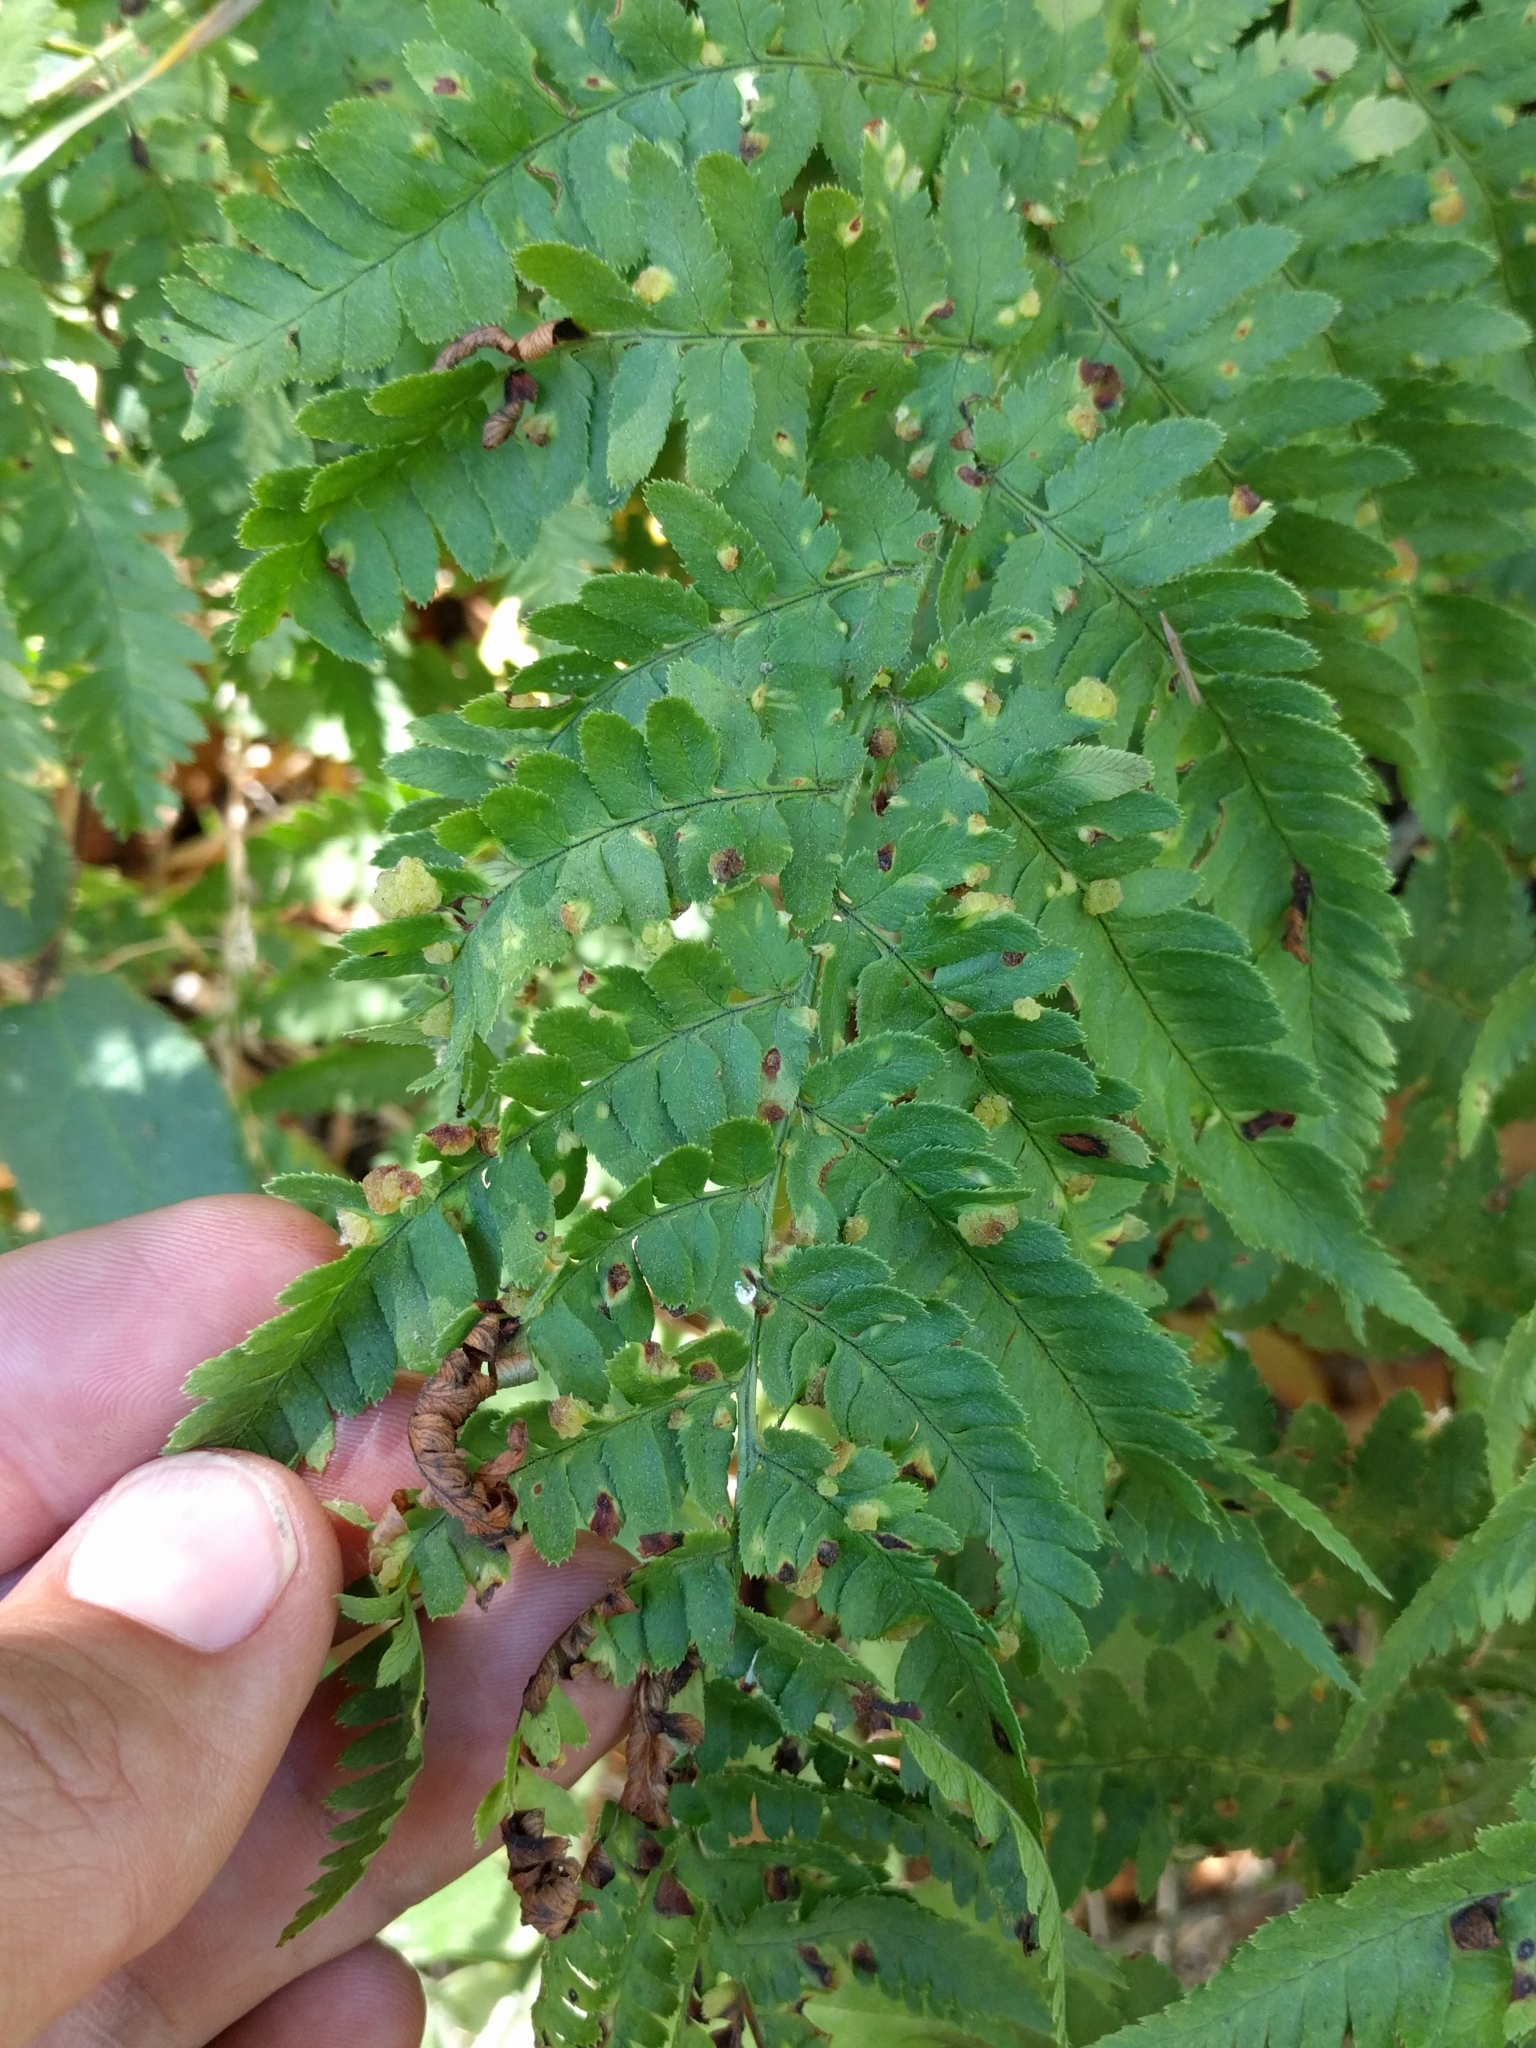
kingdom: Fungi
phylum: Ascomycota
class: Taphrinomycetes
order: Taphrinales
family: Taphrinaceae
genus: Taphrina
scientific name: Taphrina californica
